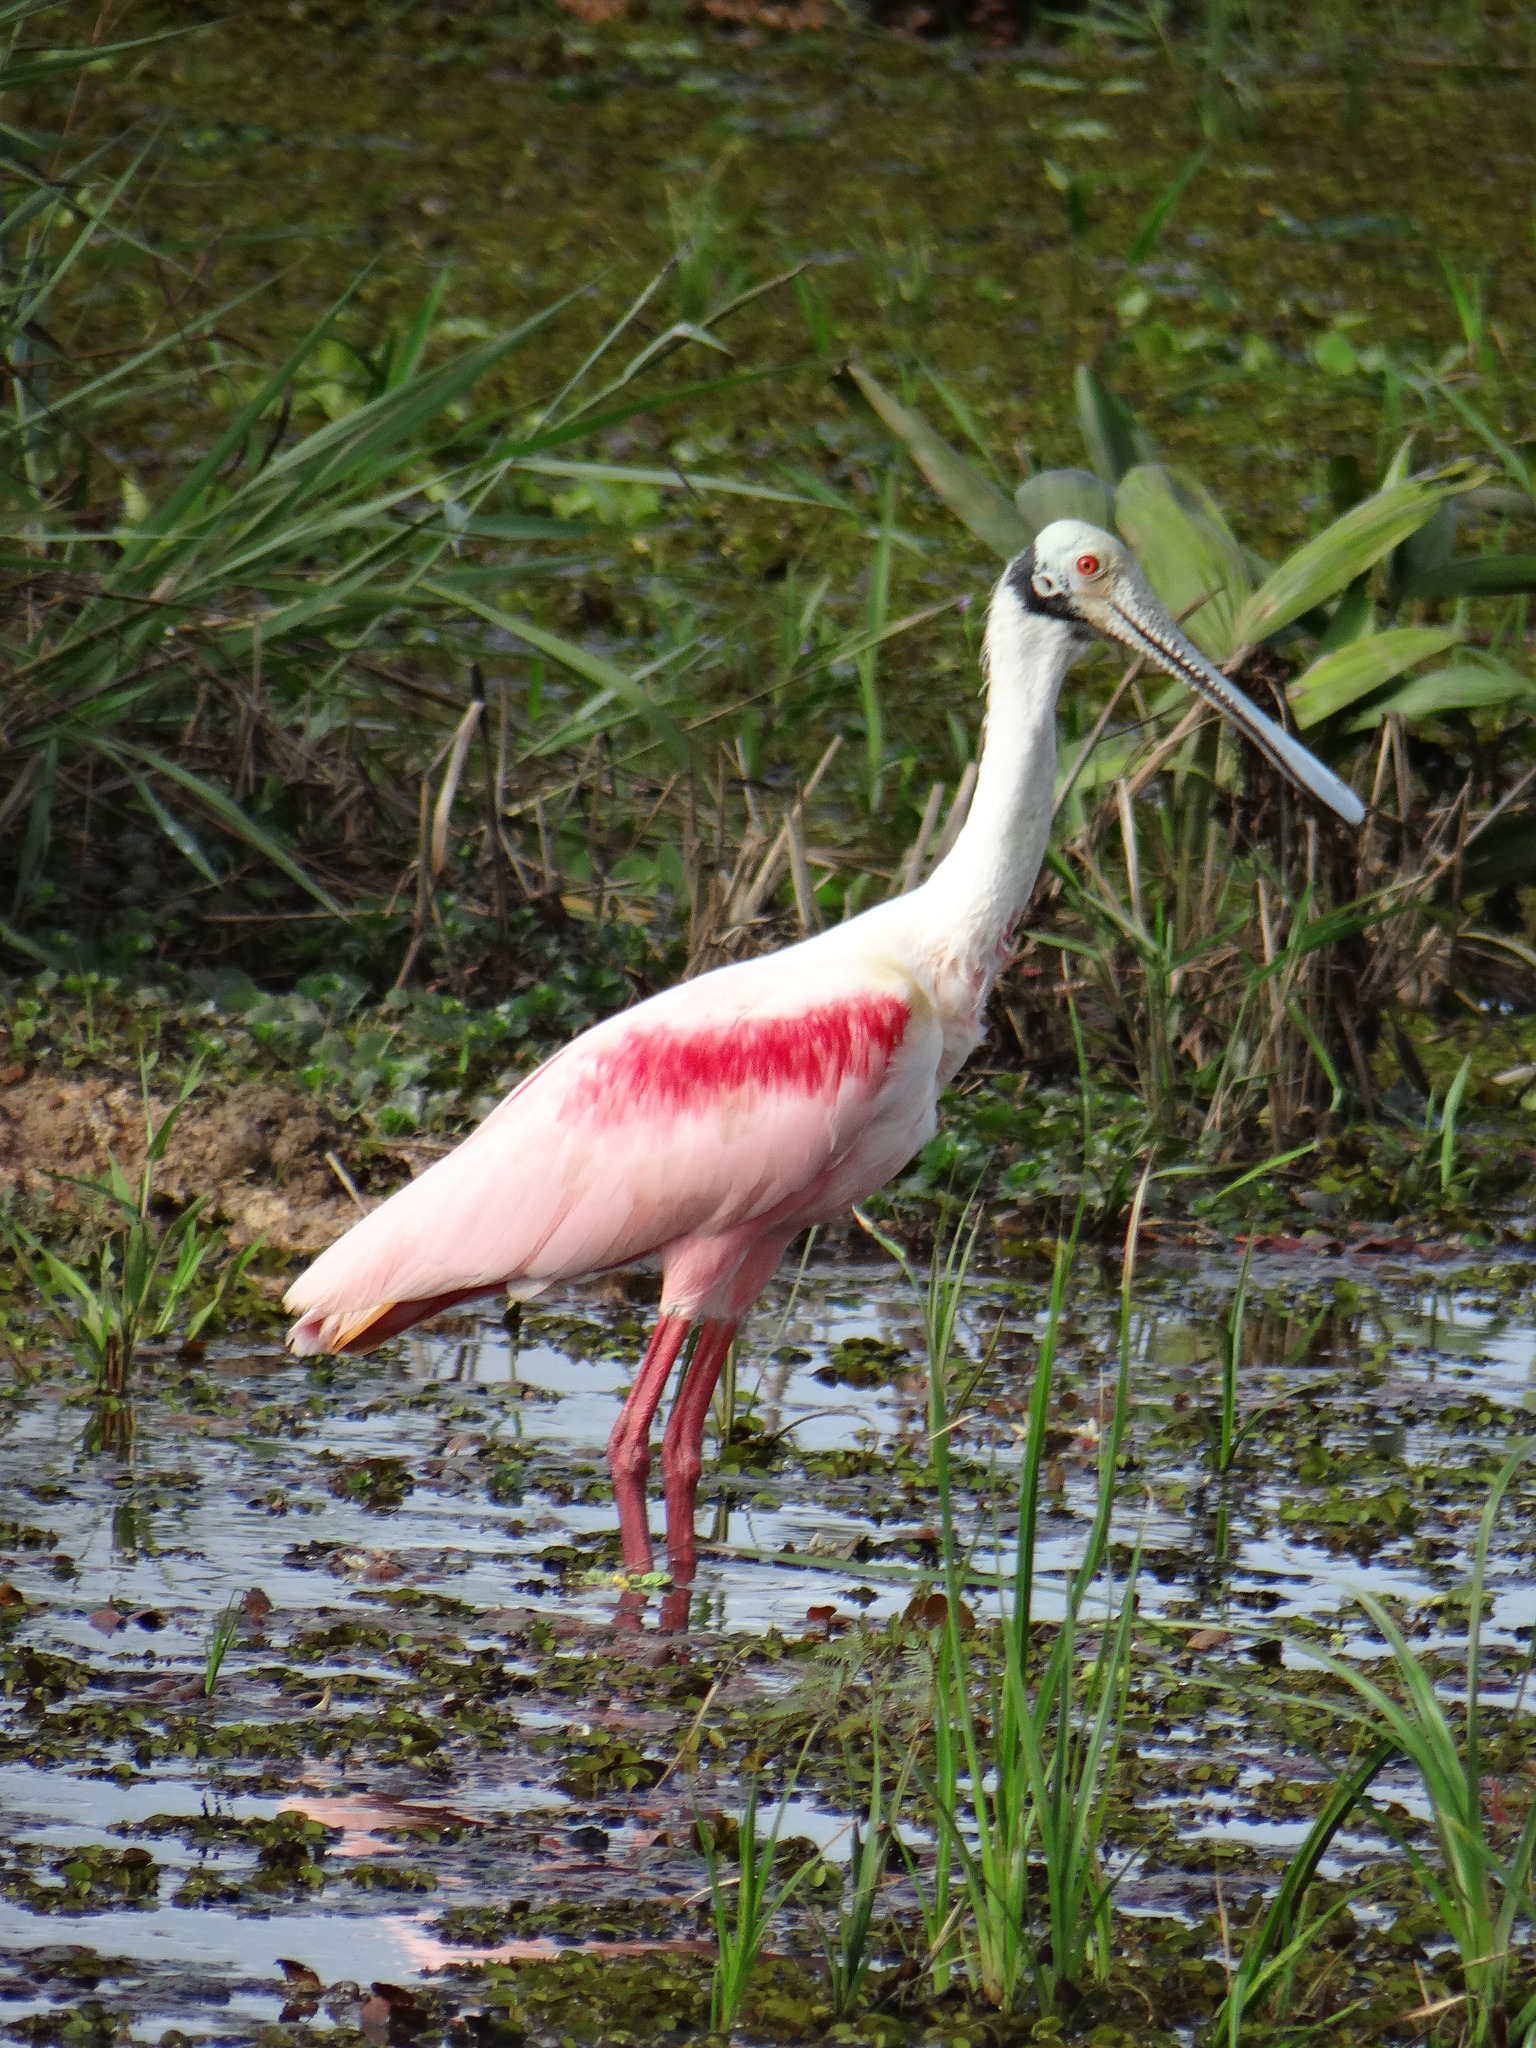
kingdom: Animalia
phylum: Chordata
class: Aves
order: Pelecaniformes
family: Threskiornithidae
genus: Platalea
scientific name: Platalea ajaja
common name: Roseate spoonbill
